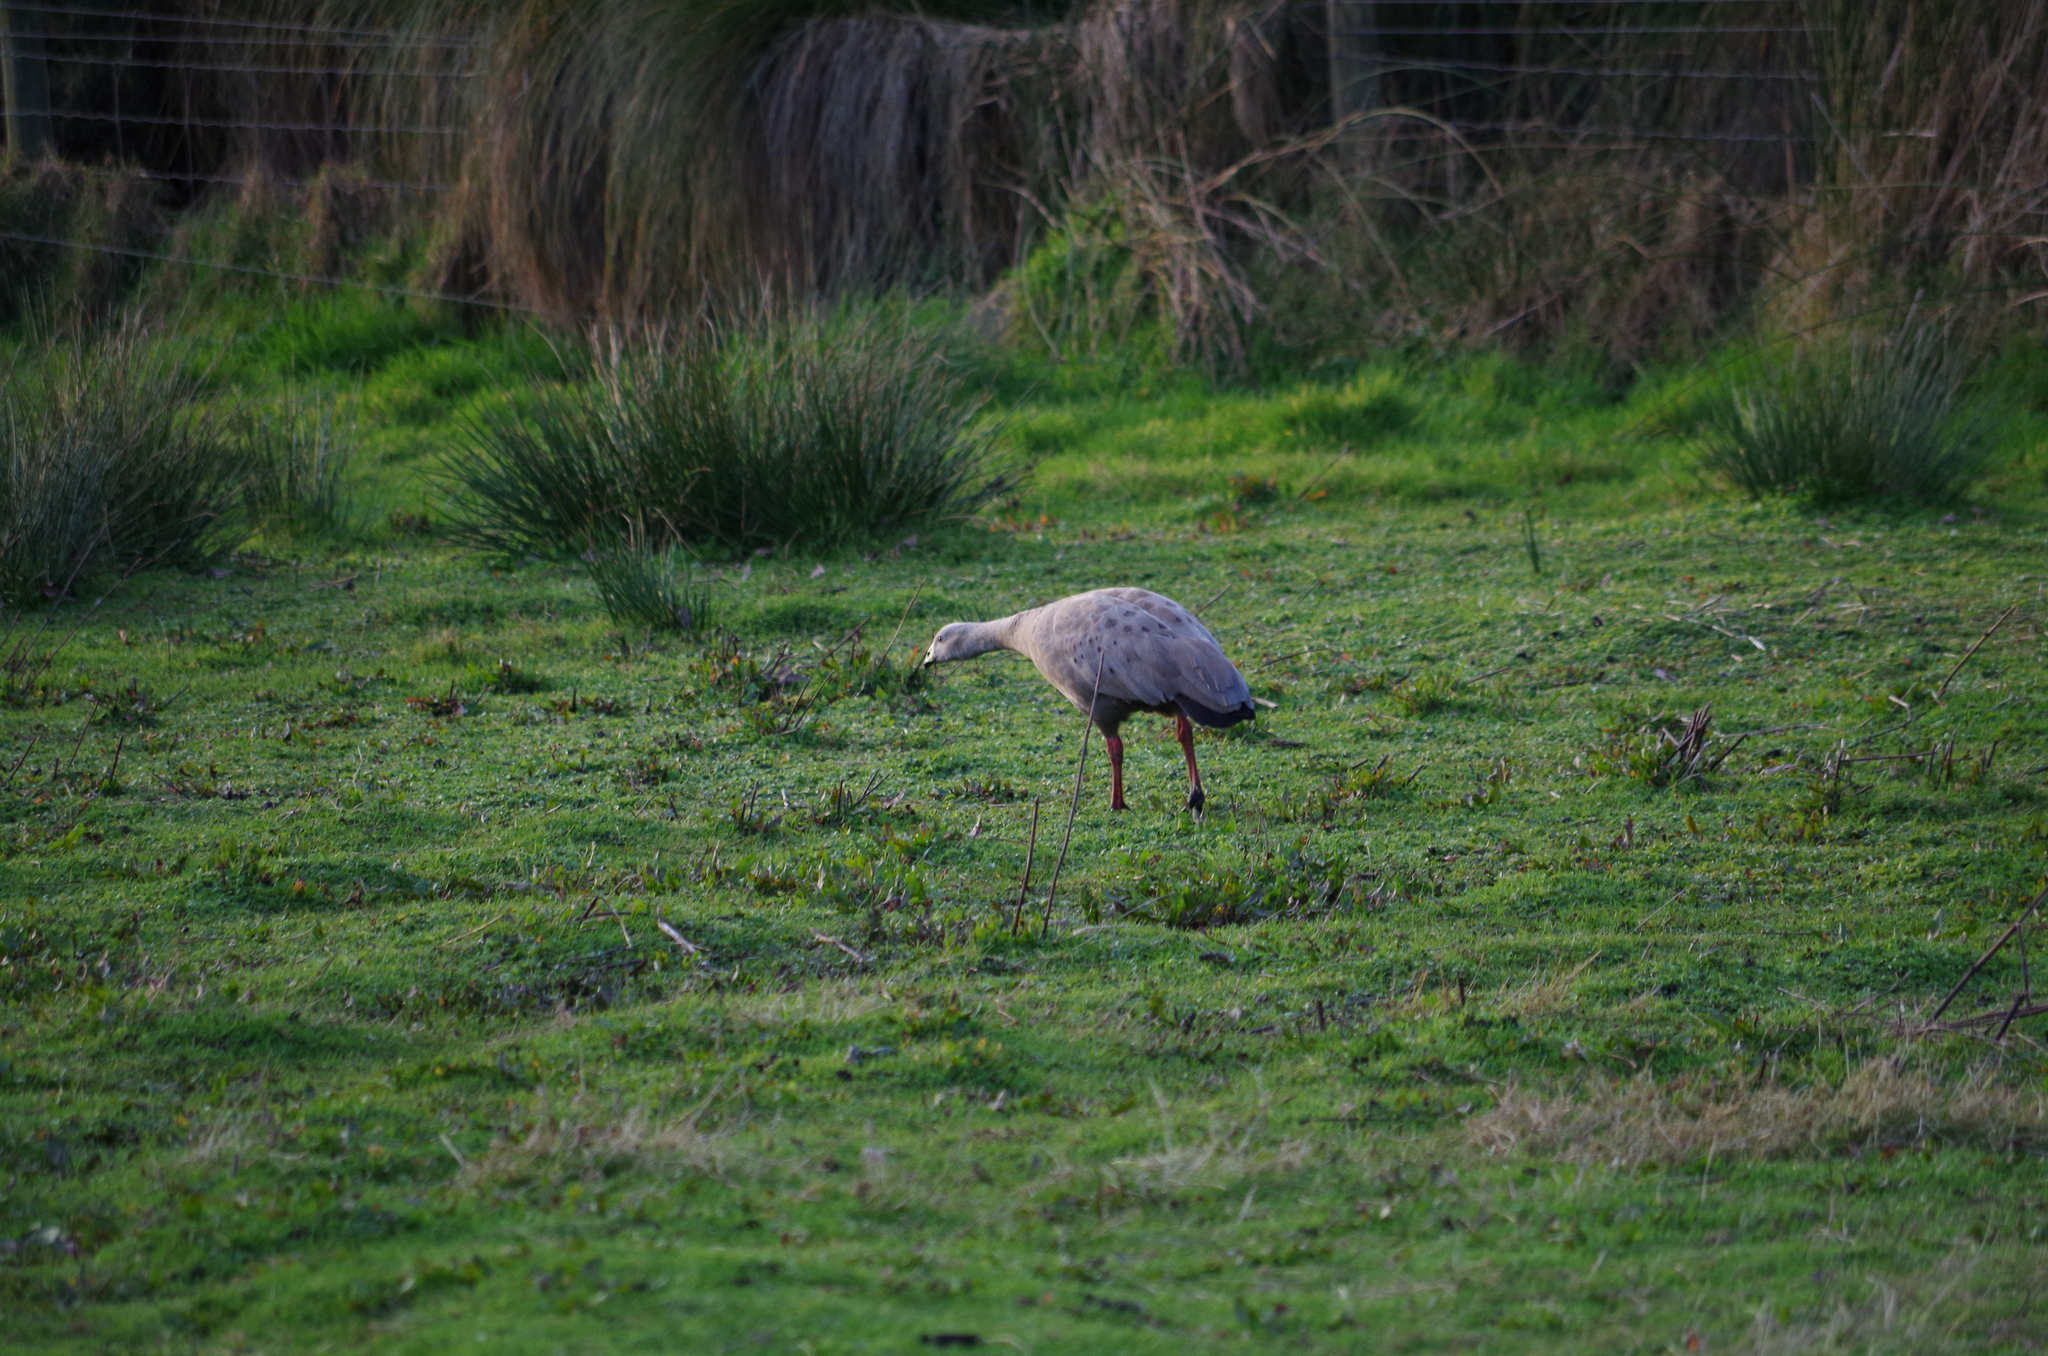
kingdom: Animalia
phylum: Chordata
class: Aves
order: Anseriformes
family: Anatidae
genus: Cereopsis
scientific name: Cereopsis novaehollandiae
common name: Cape barren goose
